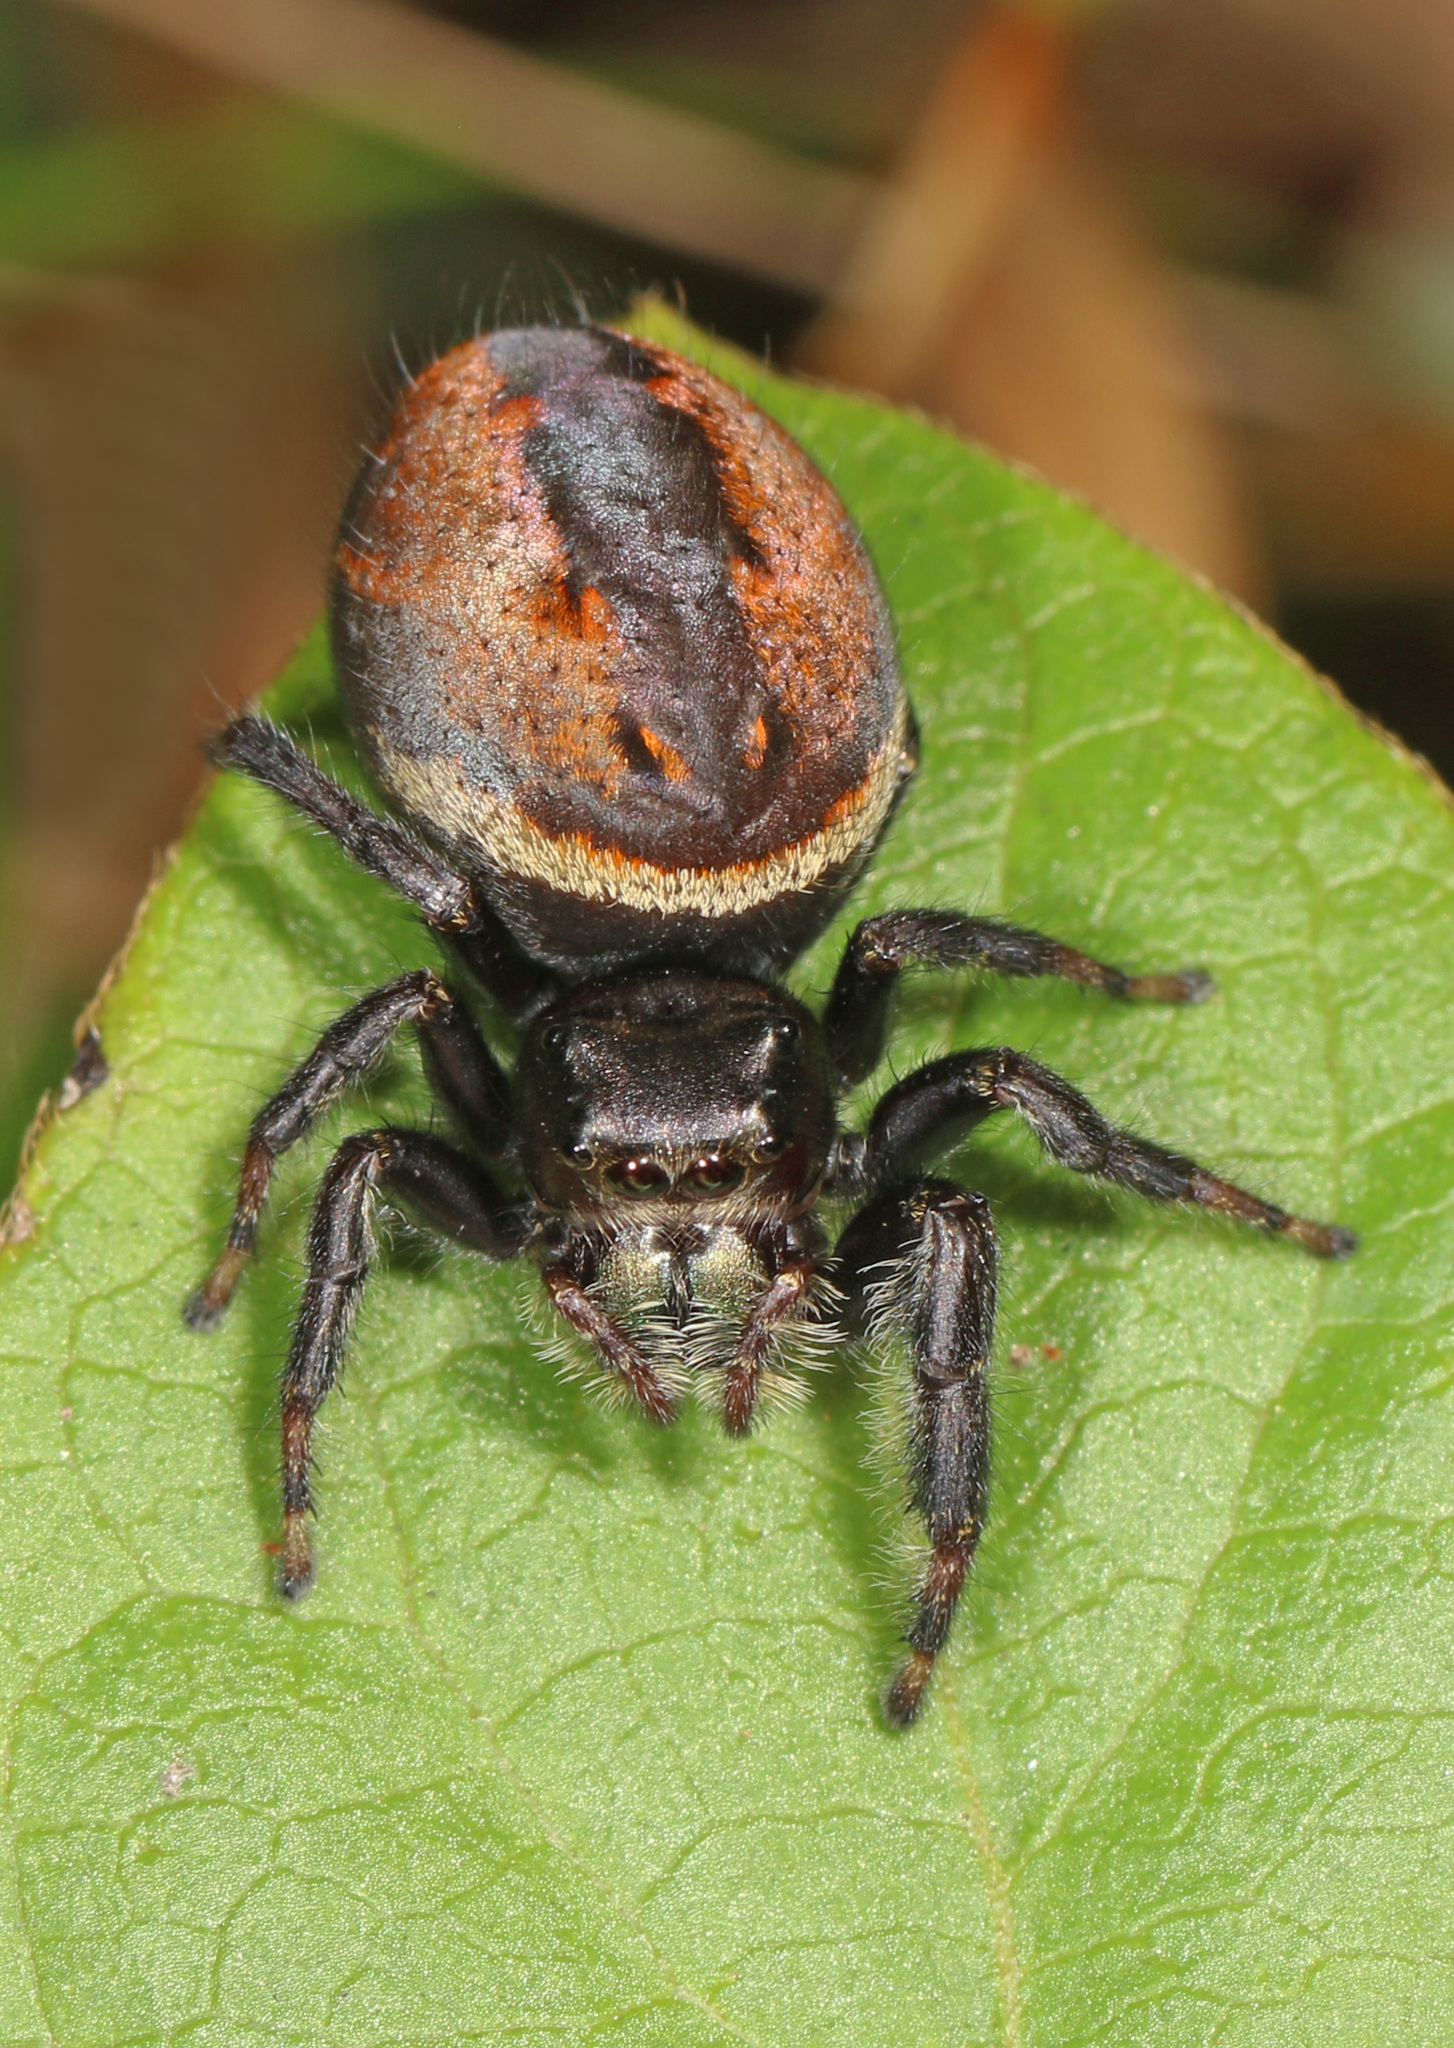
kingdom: Animalia
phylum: Arthropoda
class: Arachnida
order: Araneae
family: Salticidae
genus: Phidippus
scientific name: Phidippus clarus
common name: Brilliant jumping spider
